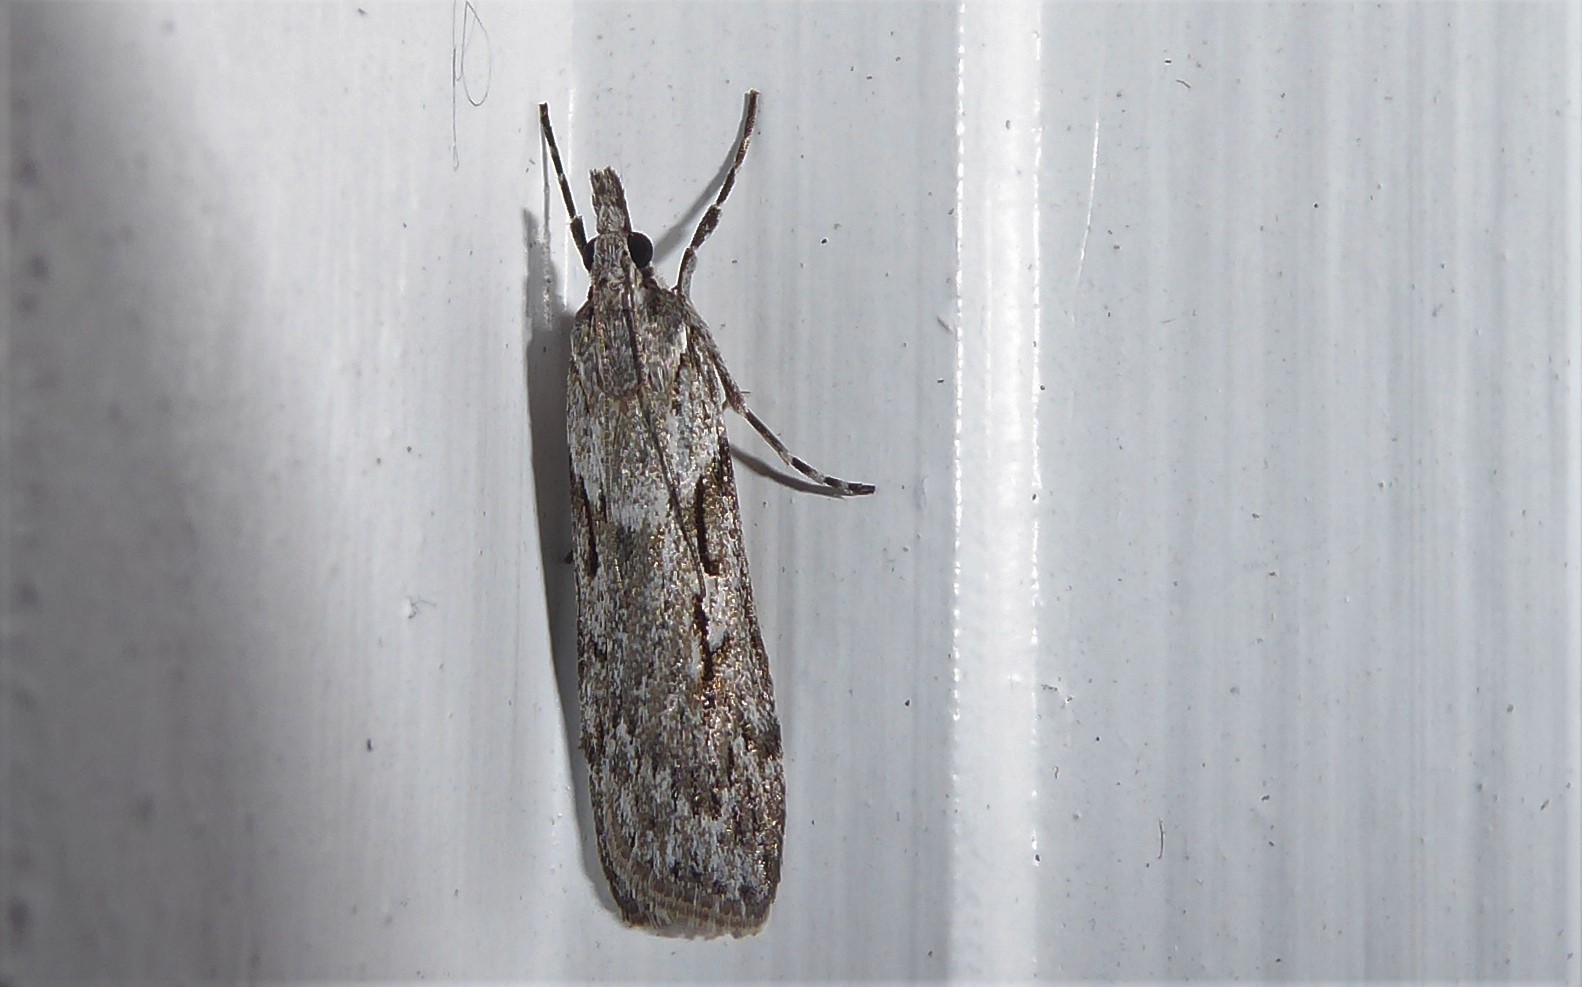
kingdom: Animalia
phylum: Arthropoda
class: Insecta
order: Lepidoptera
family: Crambidae
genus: Scoparia
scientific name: Scoparia halopis
